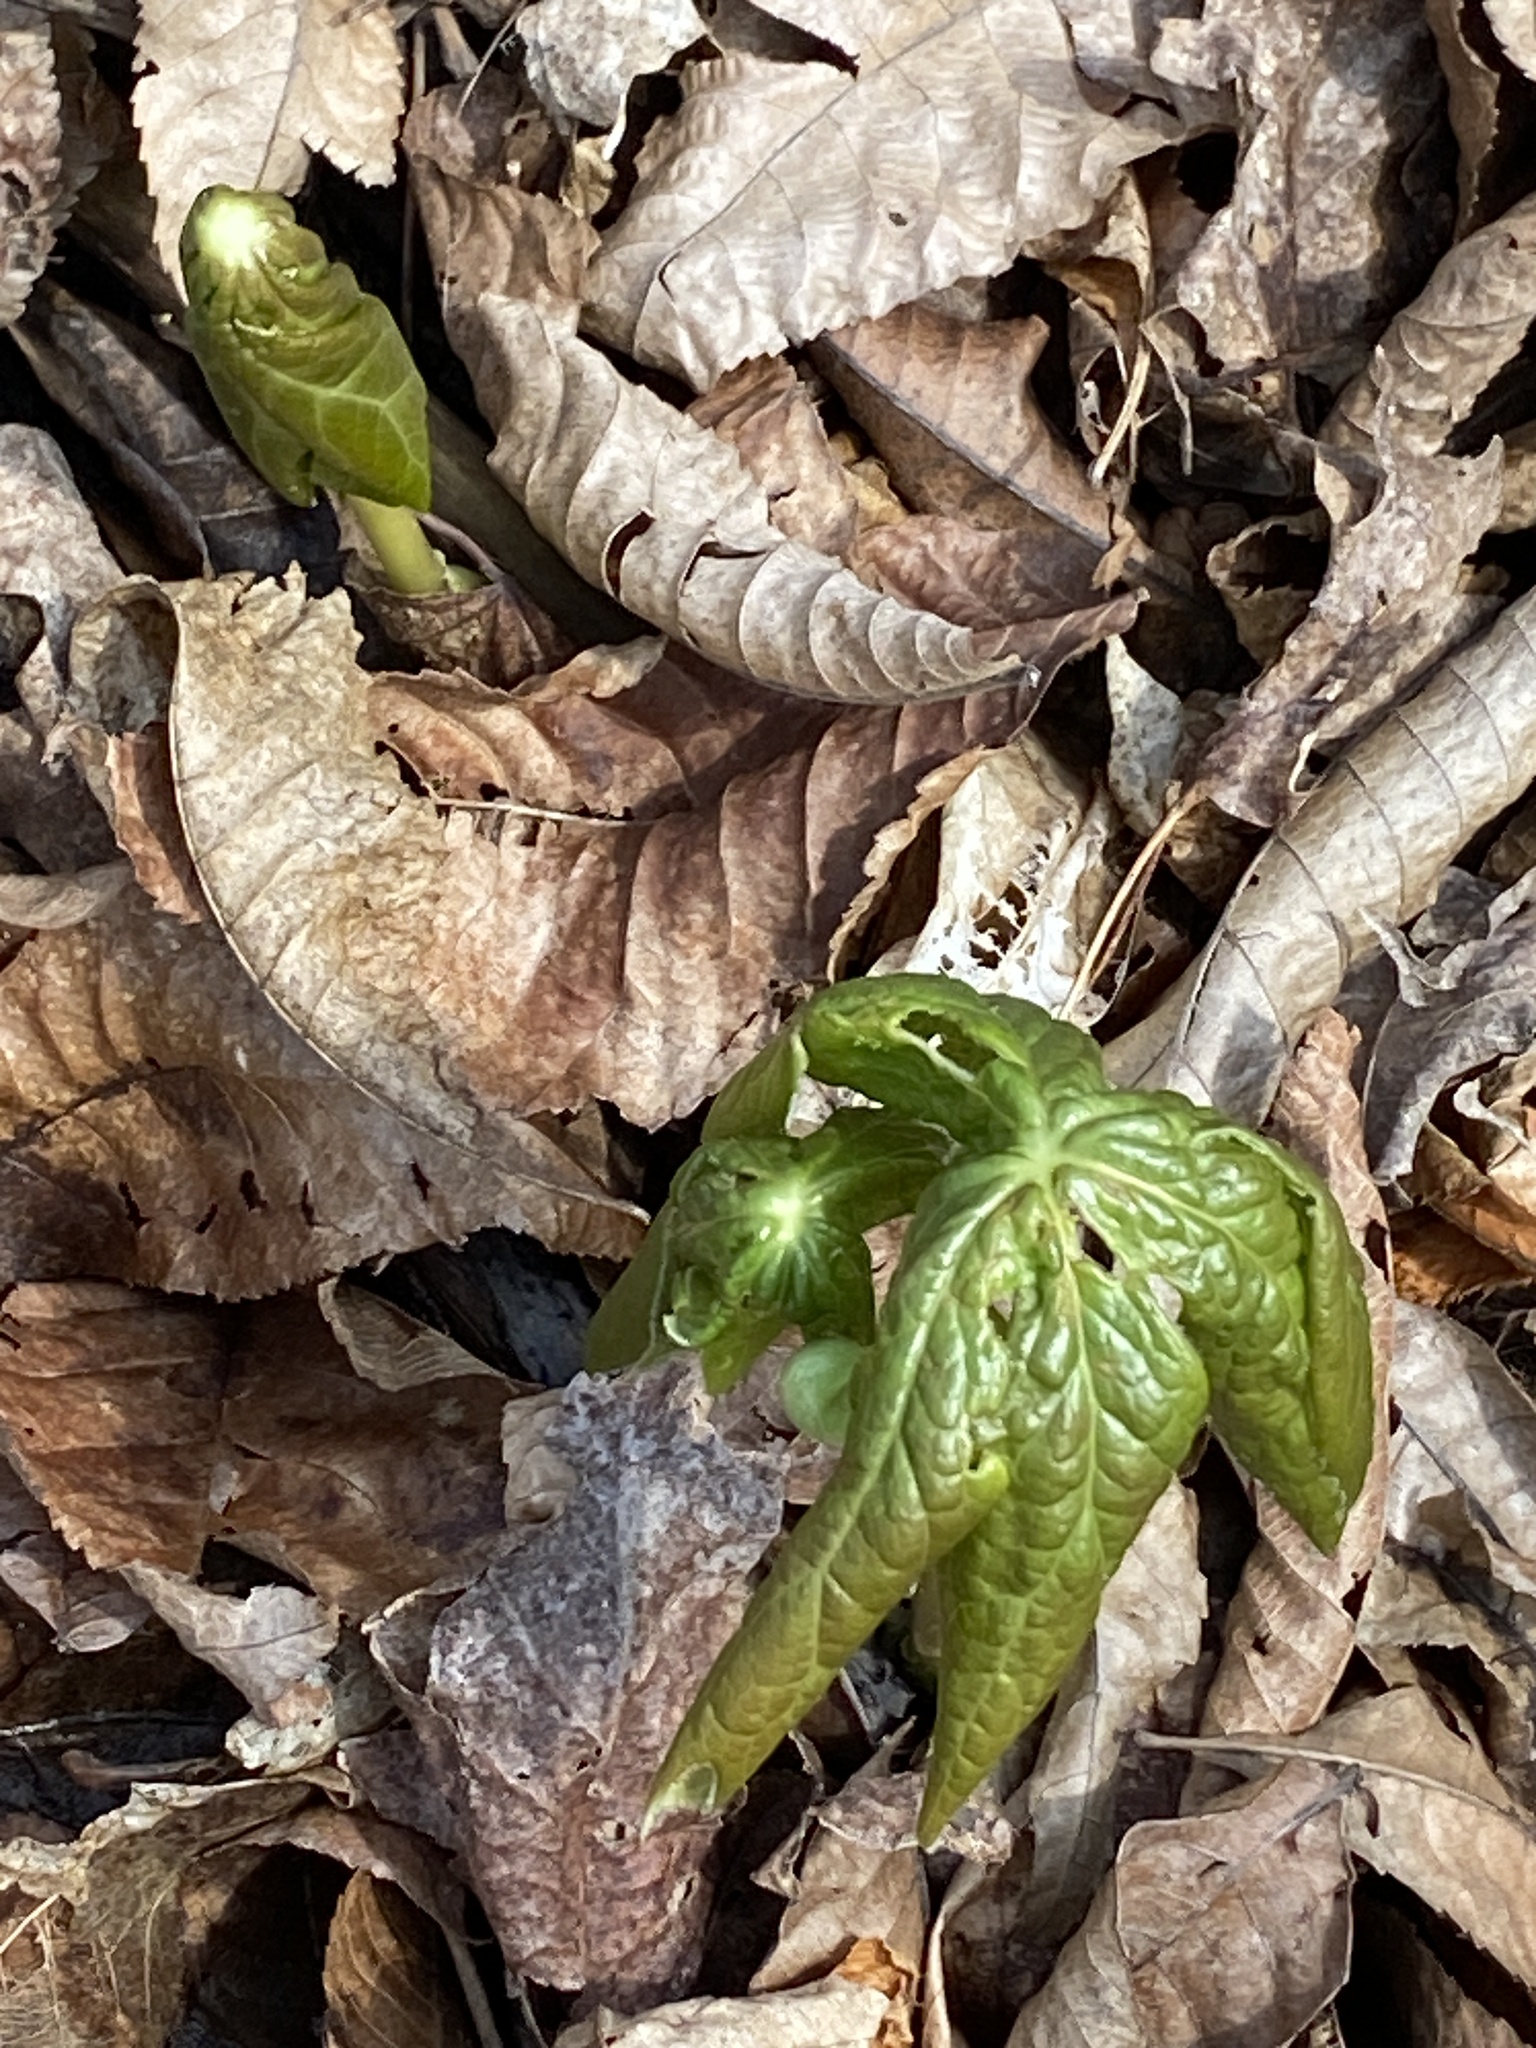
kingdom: Plantae
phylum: Tracheophyta
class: Magnoliopsida
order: Ranunculales
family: Berberidaceae
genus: Podophyllum
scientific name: Podophyllum peltatum
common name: Wild mandrake
